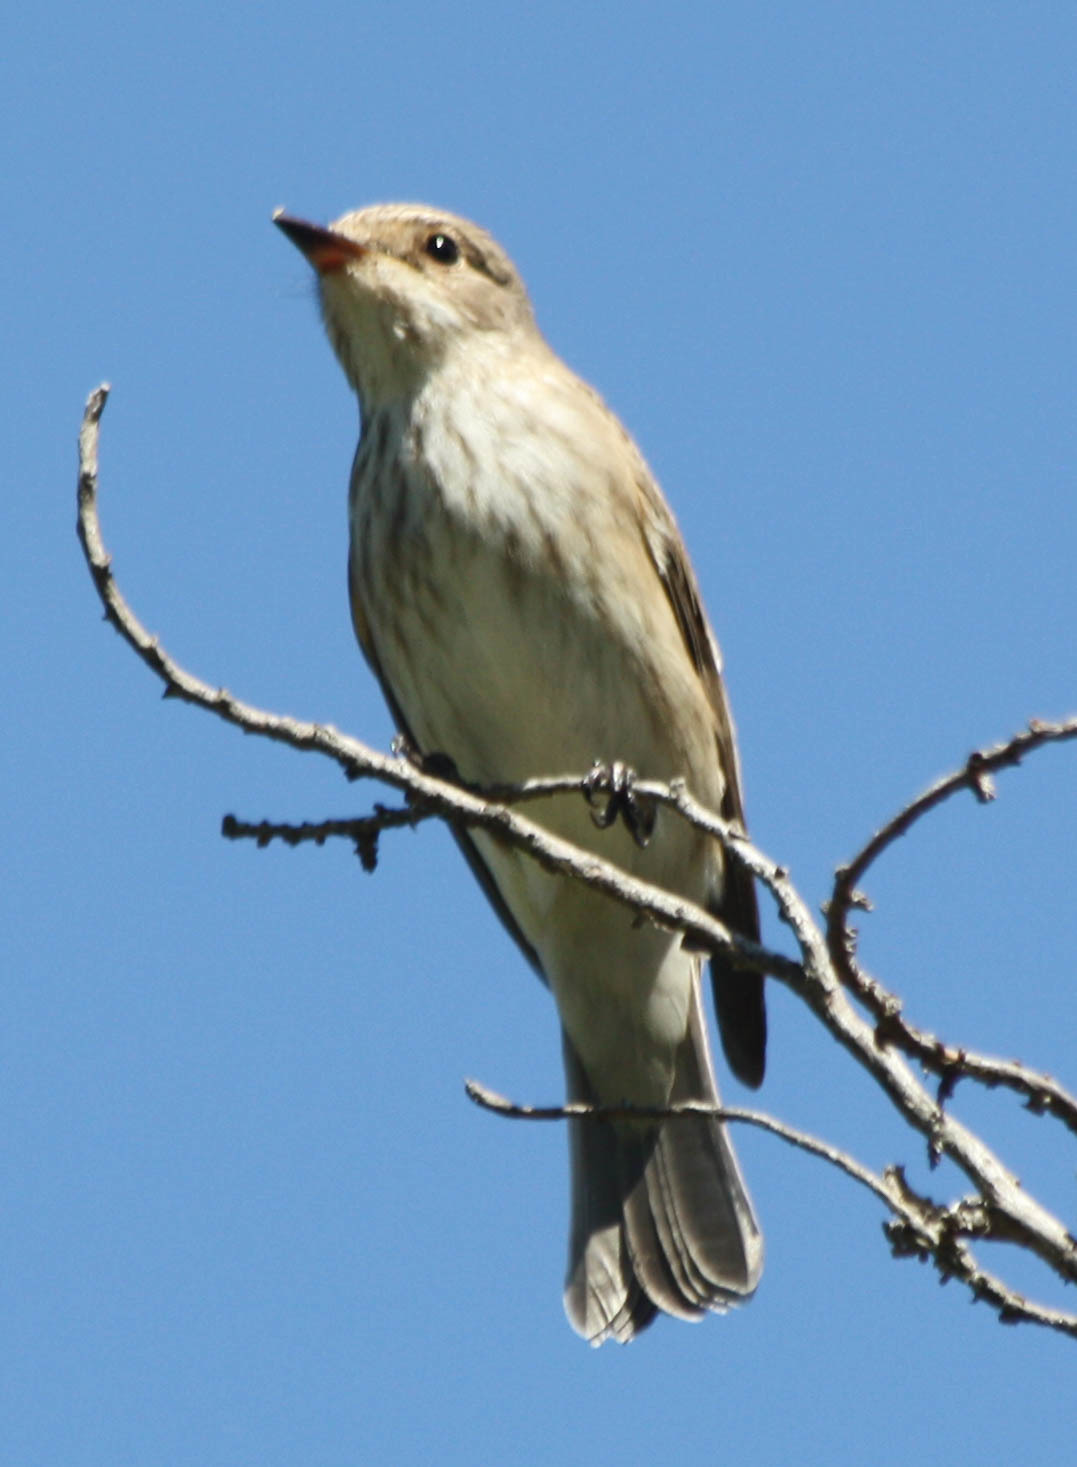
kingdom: Animalia
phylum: Chordata
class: Aves
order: Passeriformes
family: Muscicapidae
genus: Muscicapa
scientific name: Muscicapa striata
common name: Spotted flycatcher
